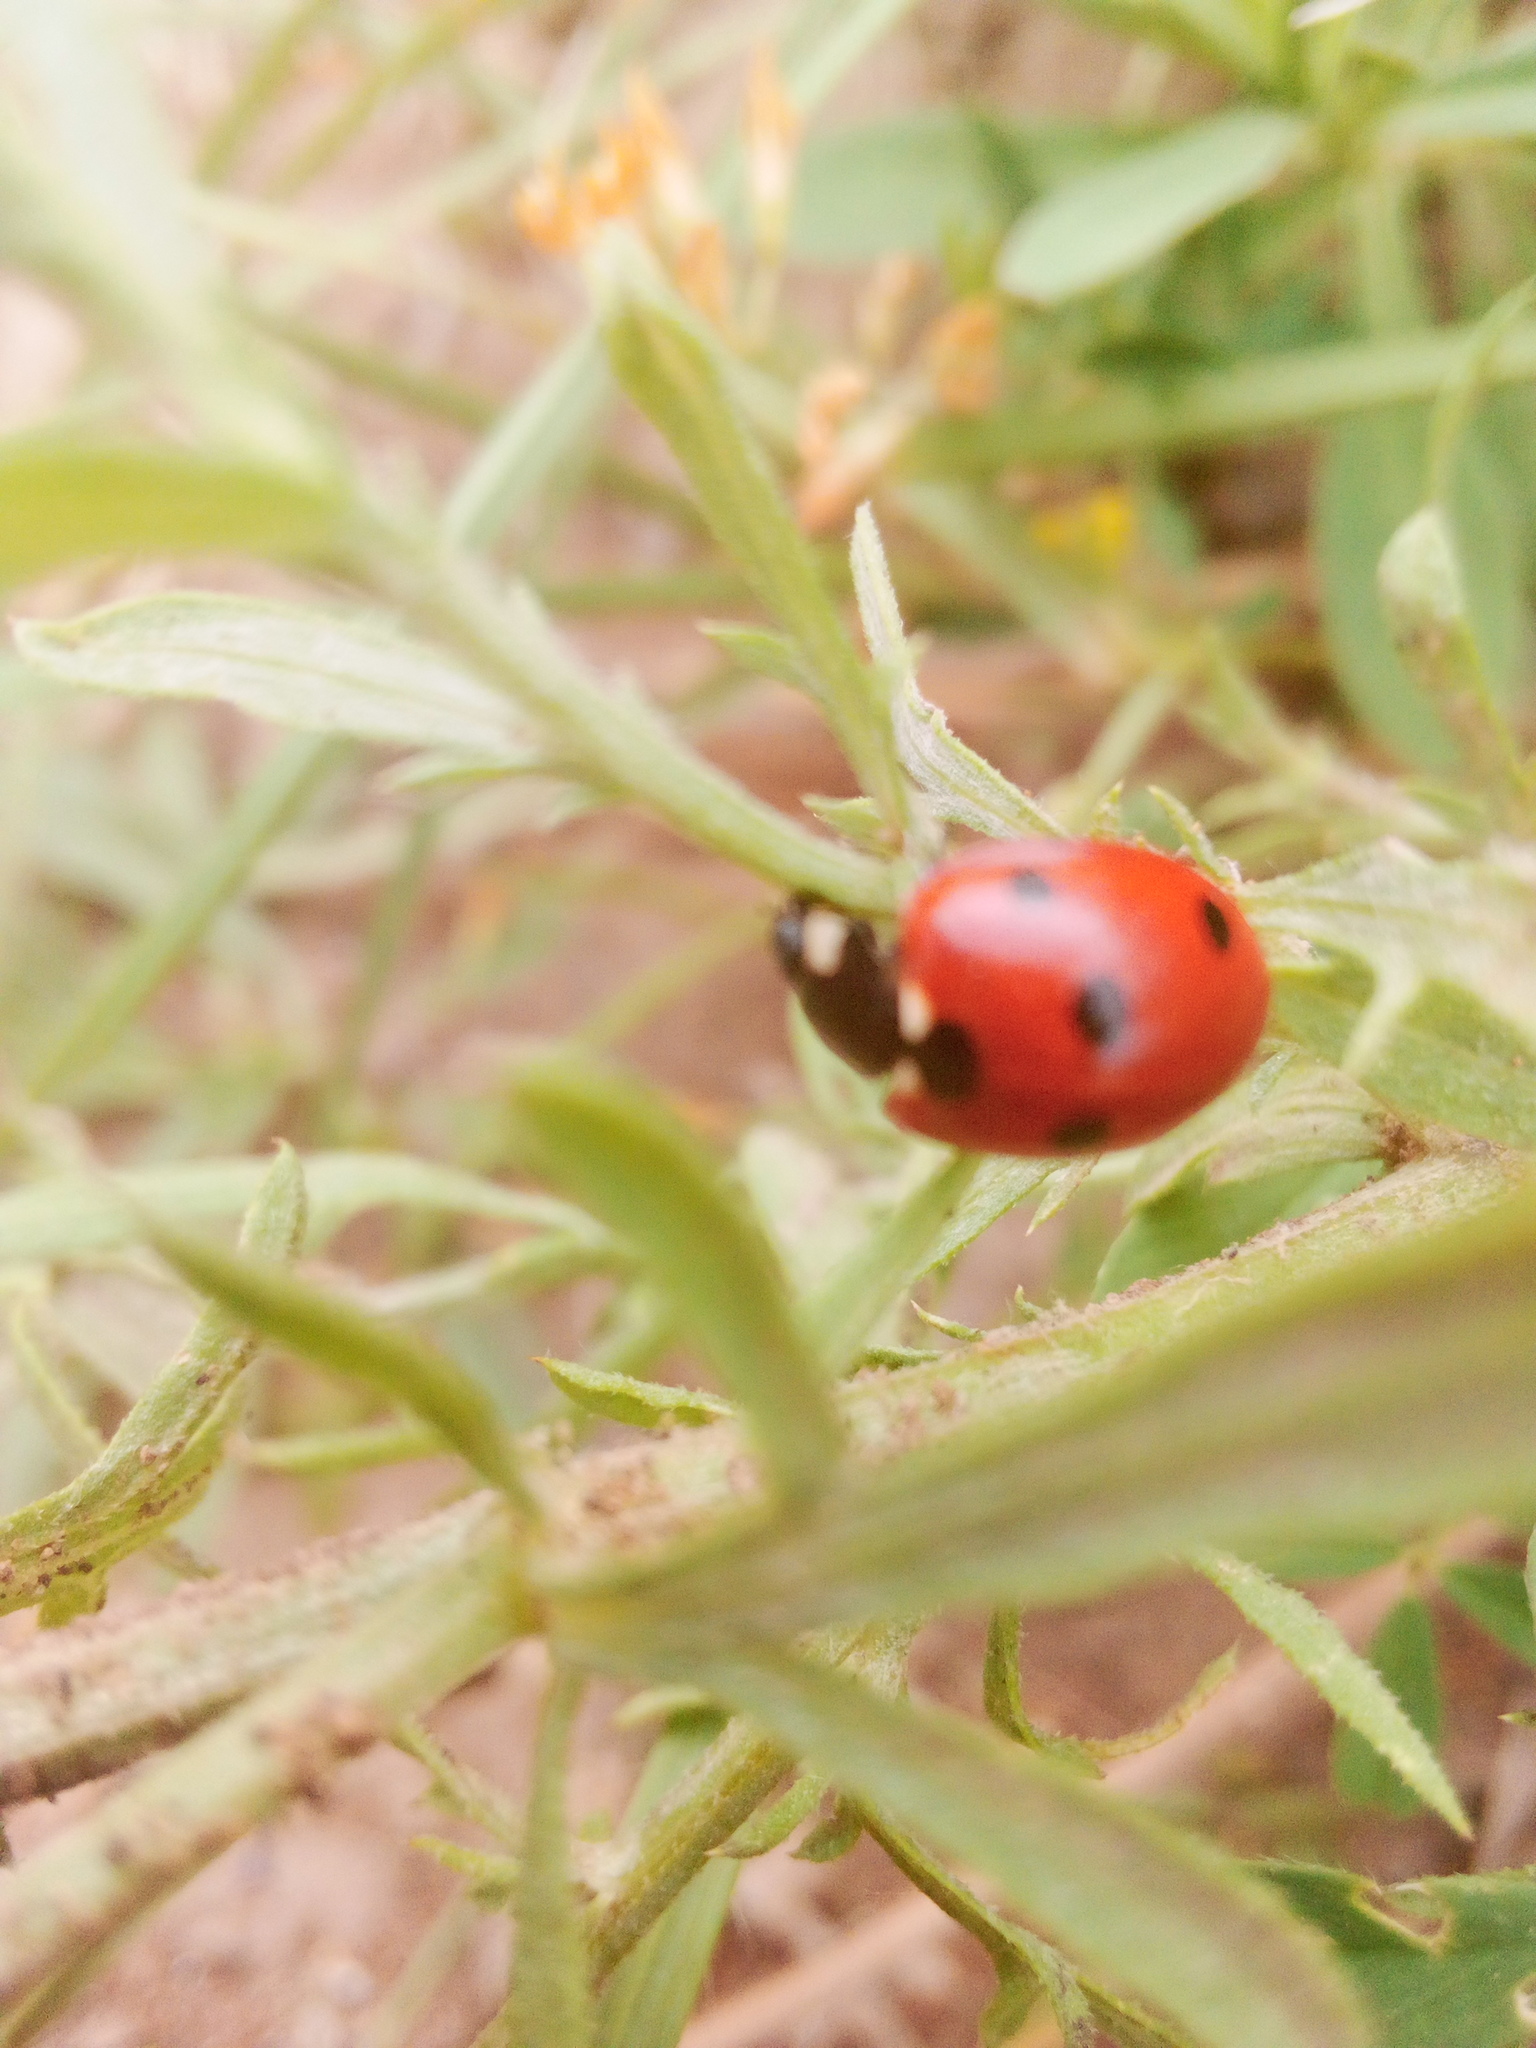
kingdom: Animalia
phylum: Arthropoda
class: Insecta
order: Coleoptera
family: Coccinellidae
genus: Coccinella
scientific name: Coccinella septempunctata
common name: Sevenspotted lady beetle
